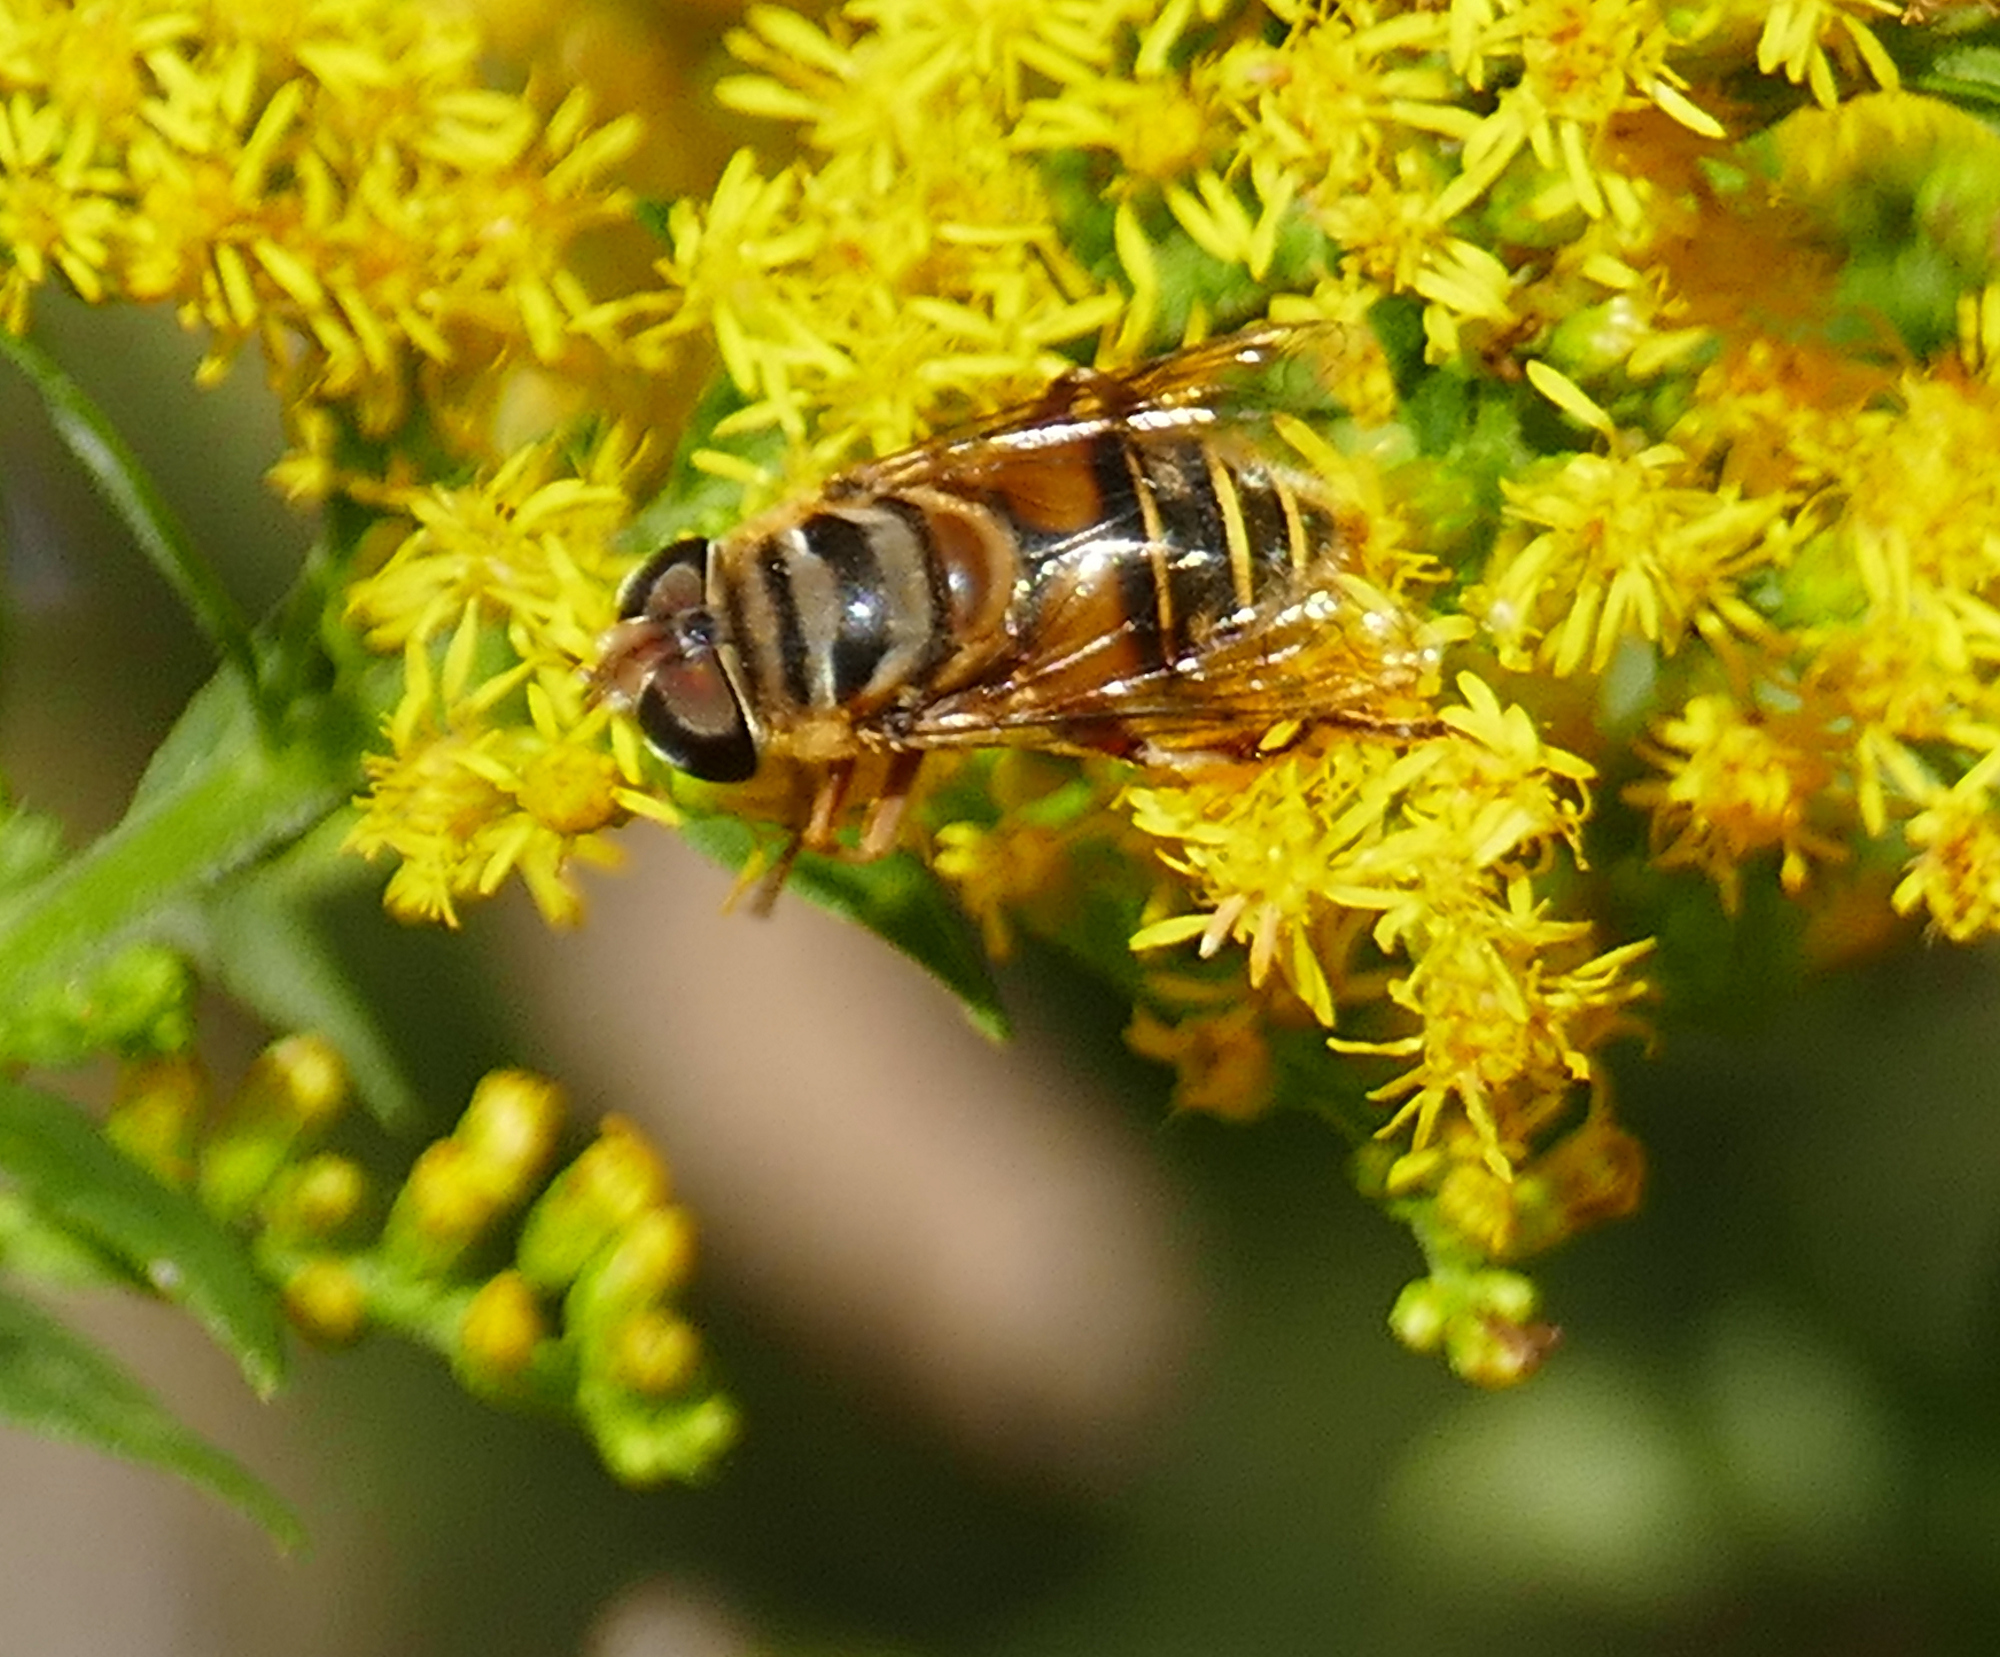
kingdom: Animalia
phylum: Arthropoda
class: Insecta
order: Diptera
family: Syrphidae
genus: Palpada
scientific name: Palpada vinetorum
